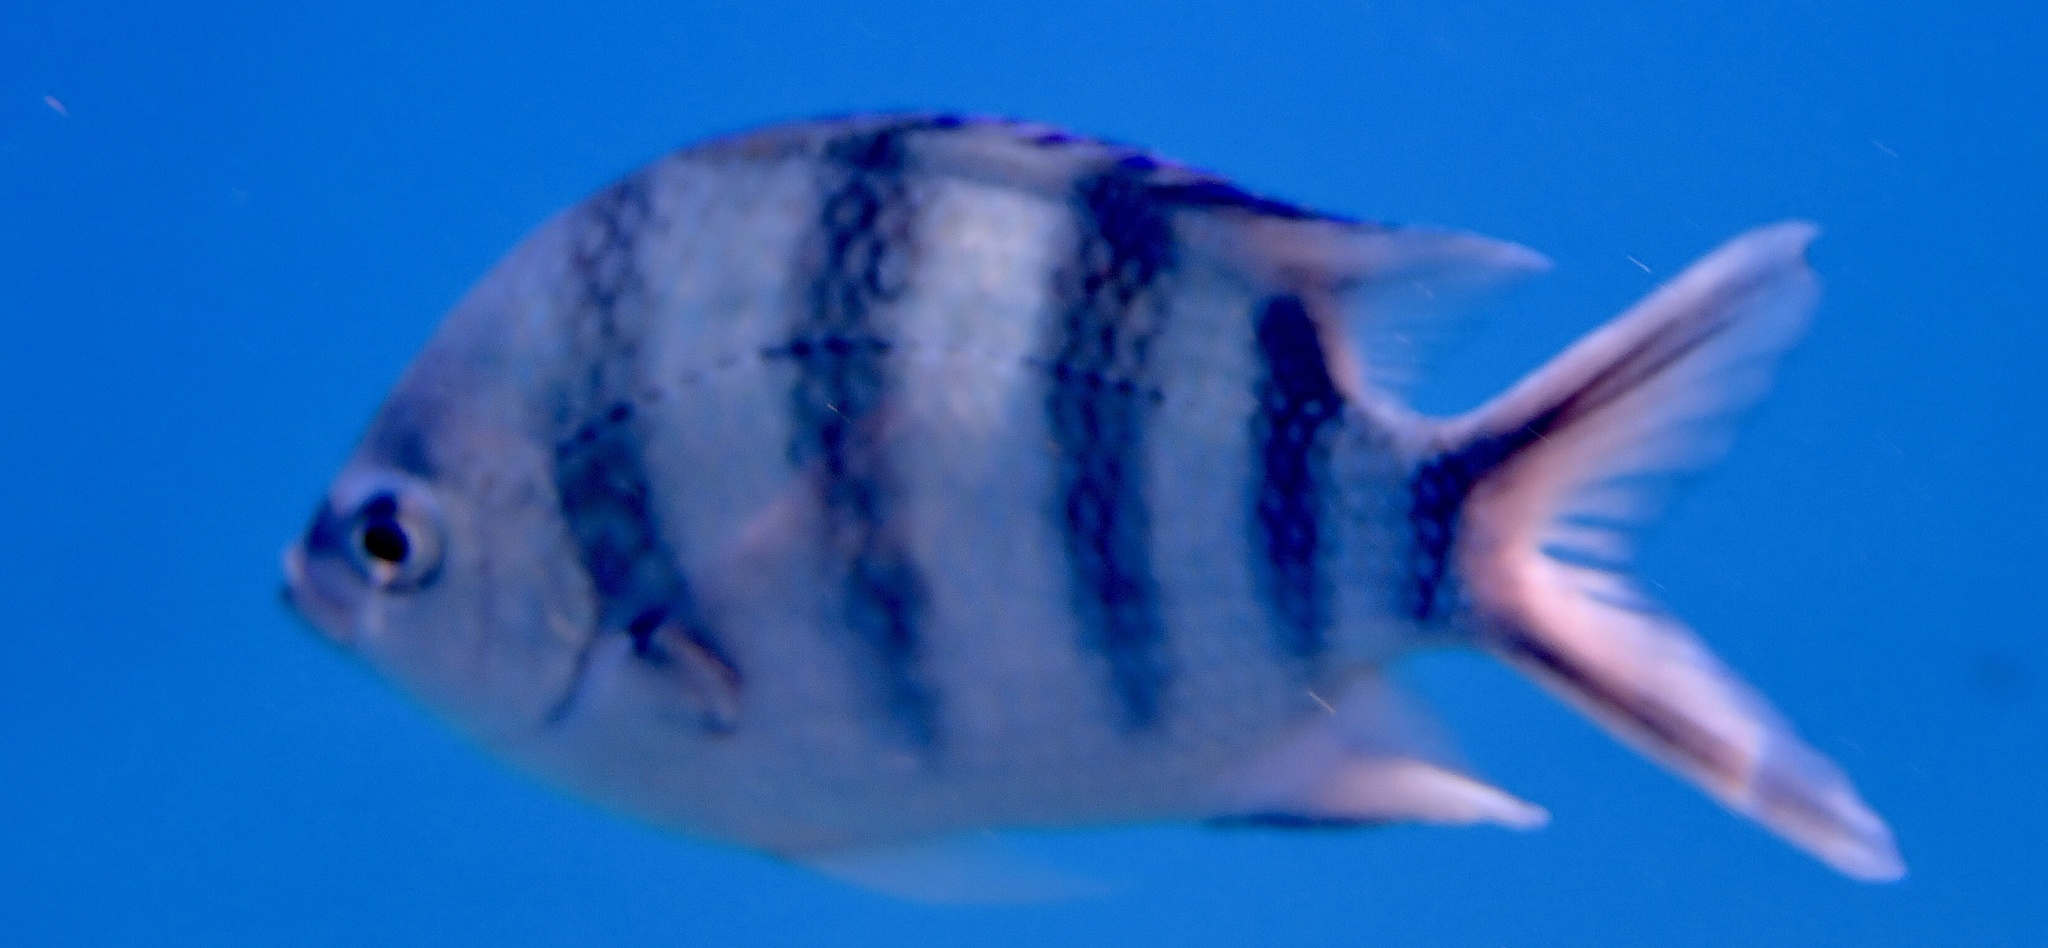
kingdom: Animalia
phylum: Chordata
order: Perciformes
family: Pomacentridae
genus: Abudefduf
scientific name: Abudefduf sexfasciatus
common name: Scissortail sergeant
